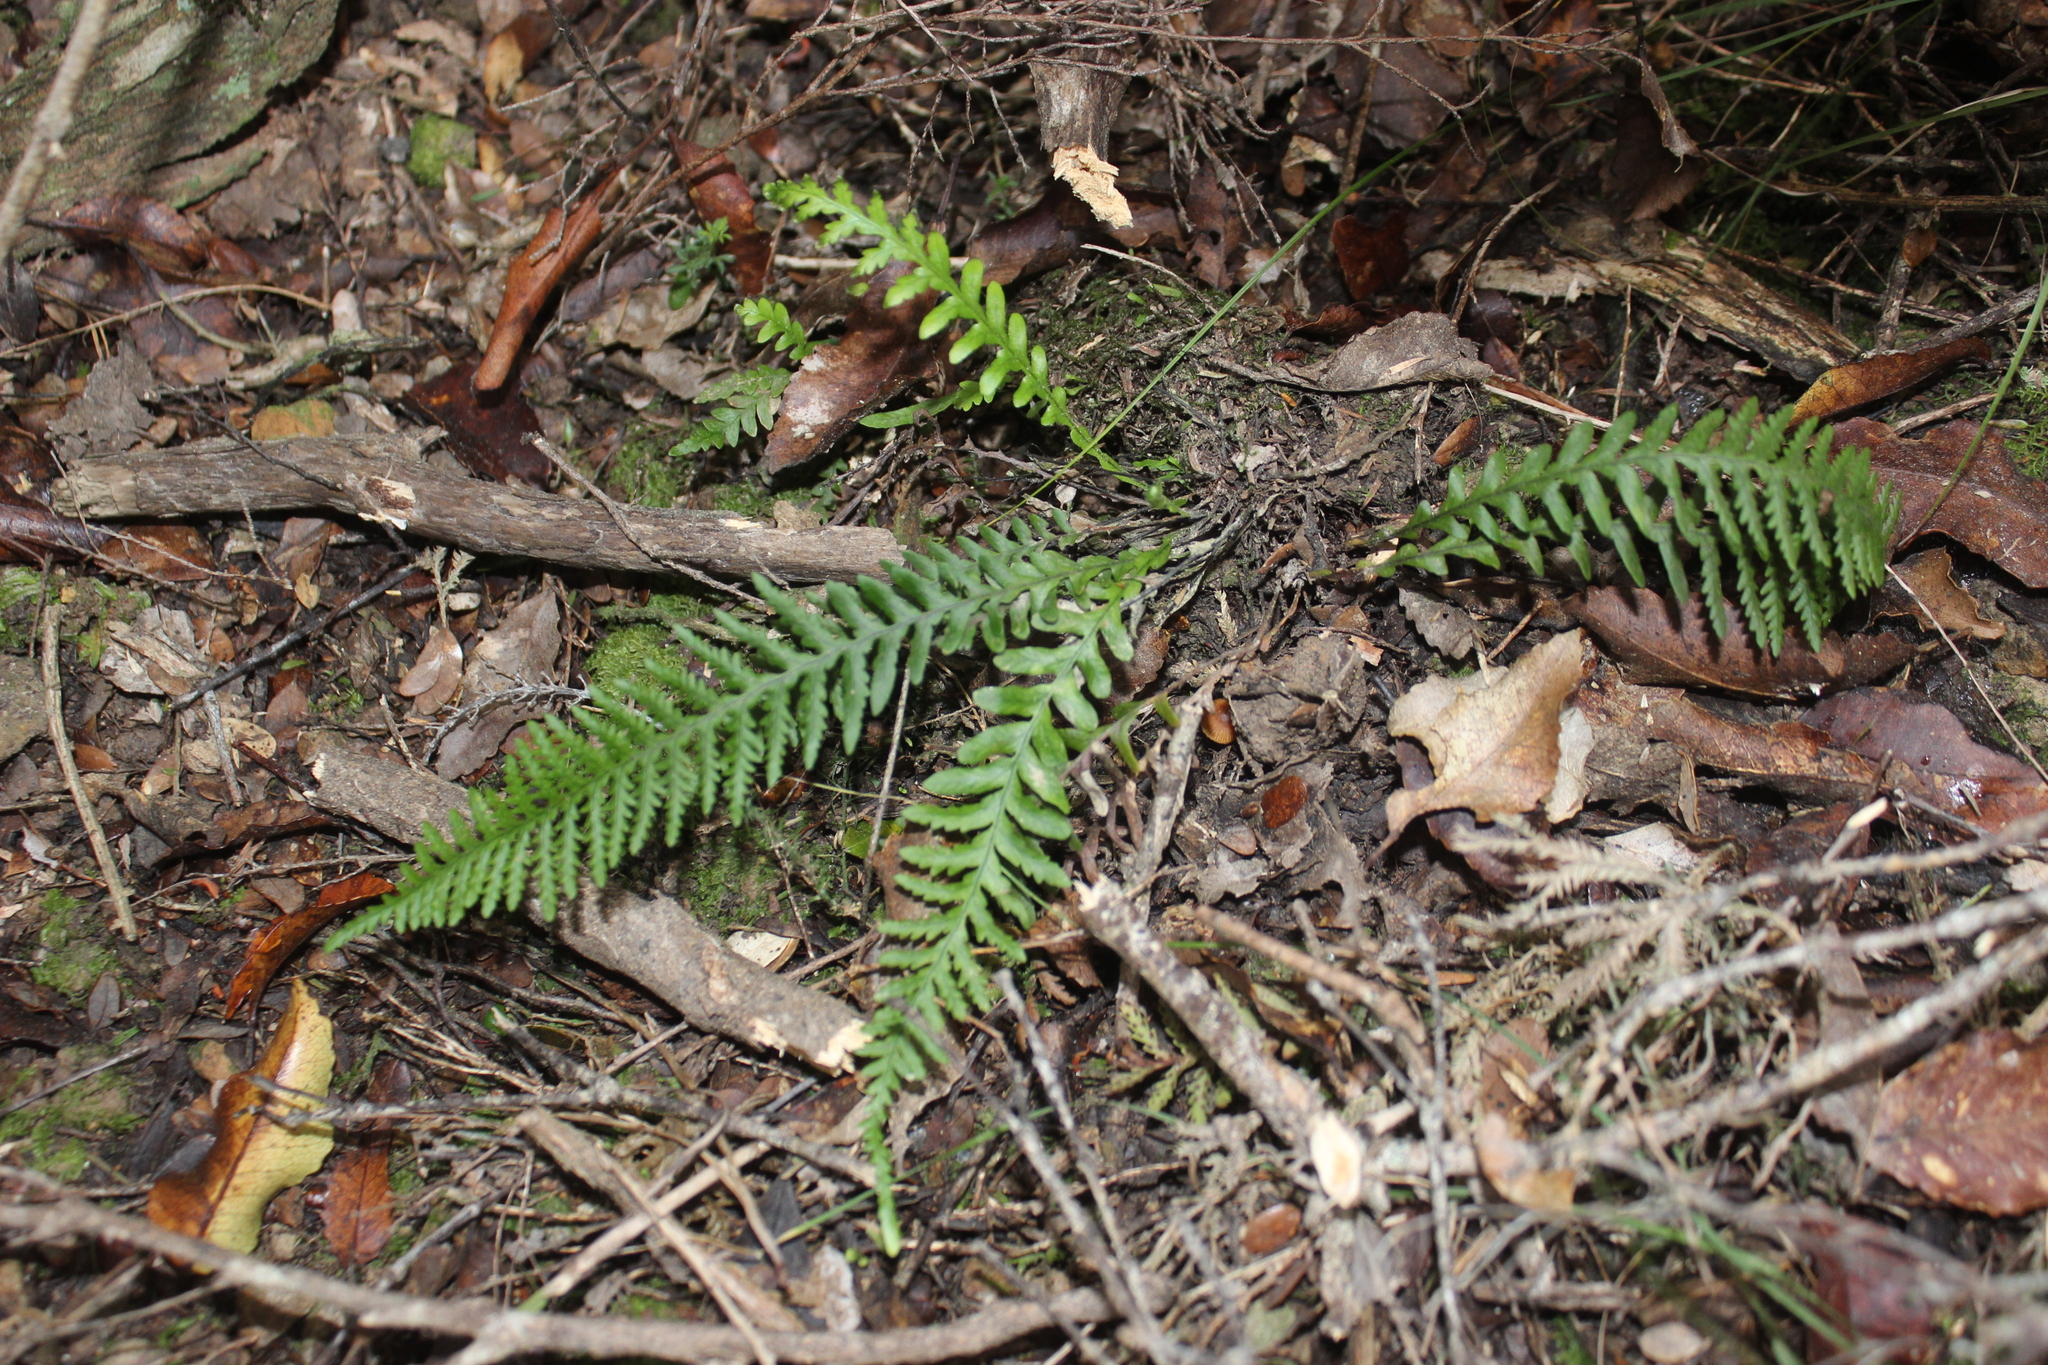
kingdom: Plantae
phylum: Tracheophyta
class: Polypodiopsida
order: Polypodiales
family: Polypodiaceae
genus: Notogrammitis
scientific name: Notogrammitis heterophylla
